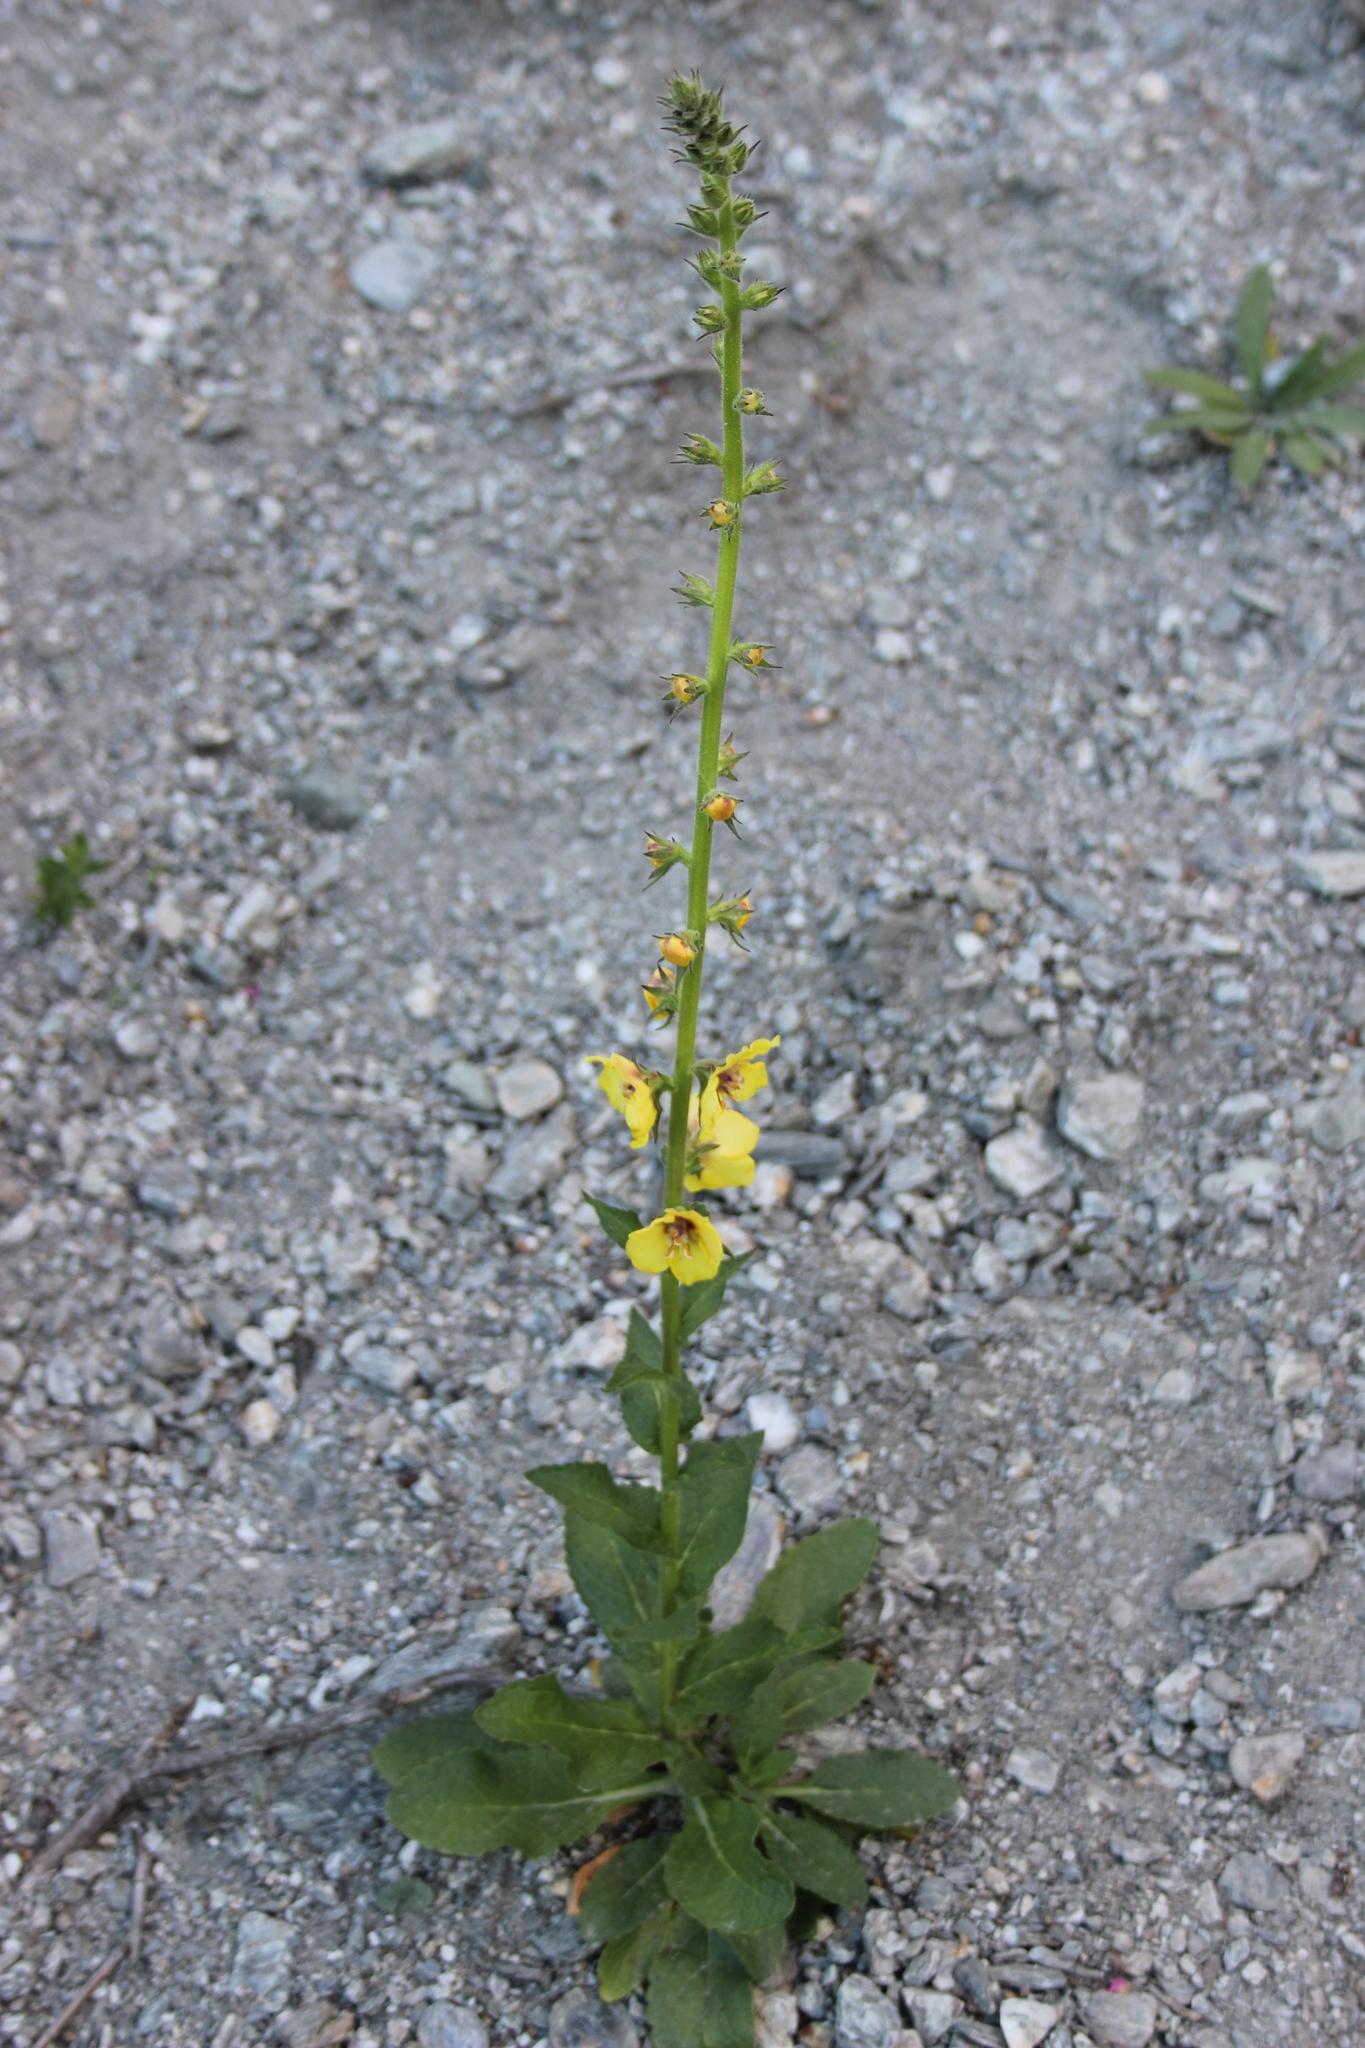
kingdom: Plantae
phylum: Tracheophyta
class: Magnoliopsida
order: Lamiales
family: Scrophulariaceae
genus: Verbascum
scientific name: Verbascum virgatum
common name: Twiggy mullein
